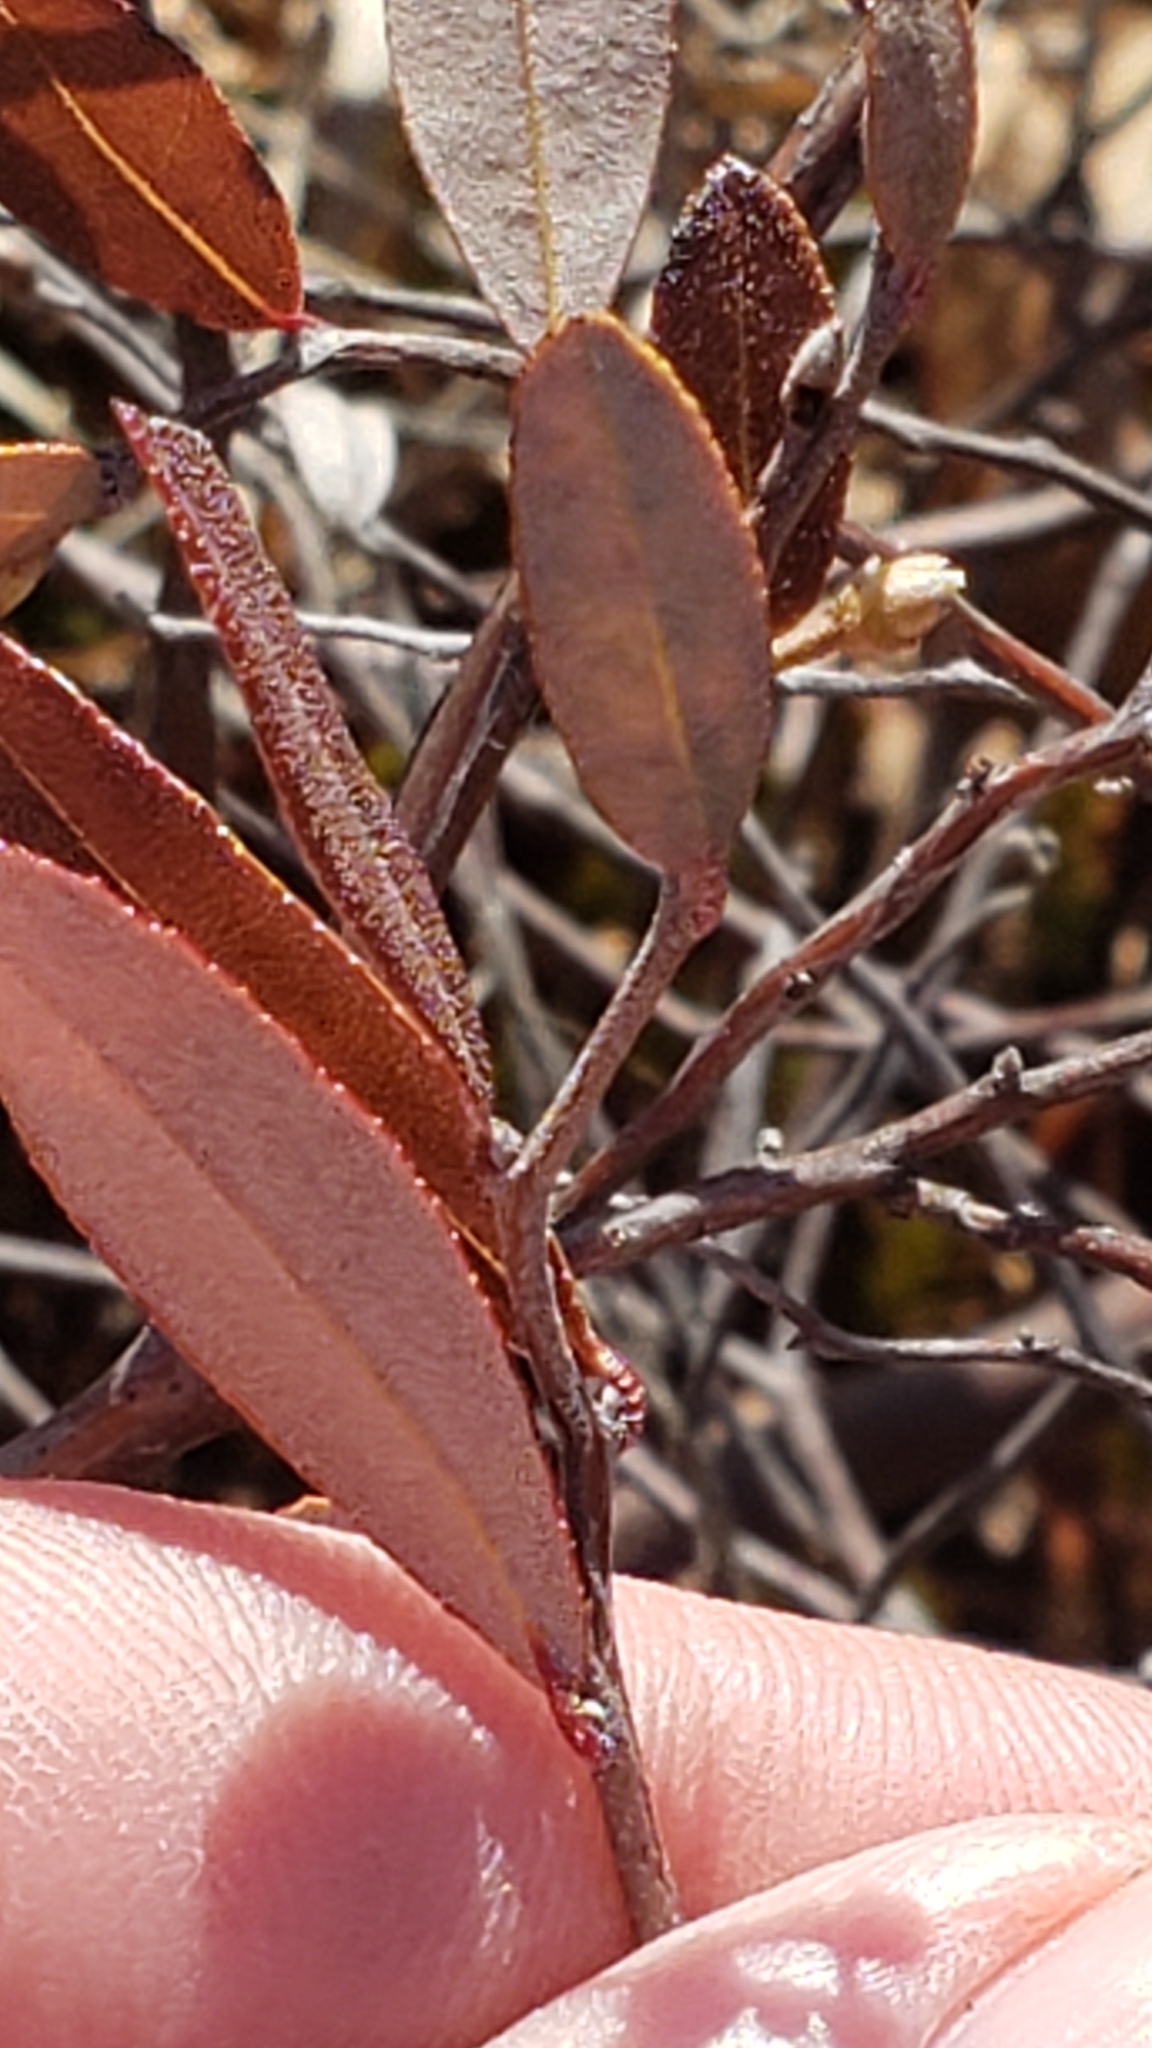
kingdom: Plantae
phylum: Tracheophyta
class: Magnoliopsida
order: Ericales
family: Ericaceae
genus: Chamaedaphne
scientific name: Chamaedaphne calyculata
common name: Leatherleaf
